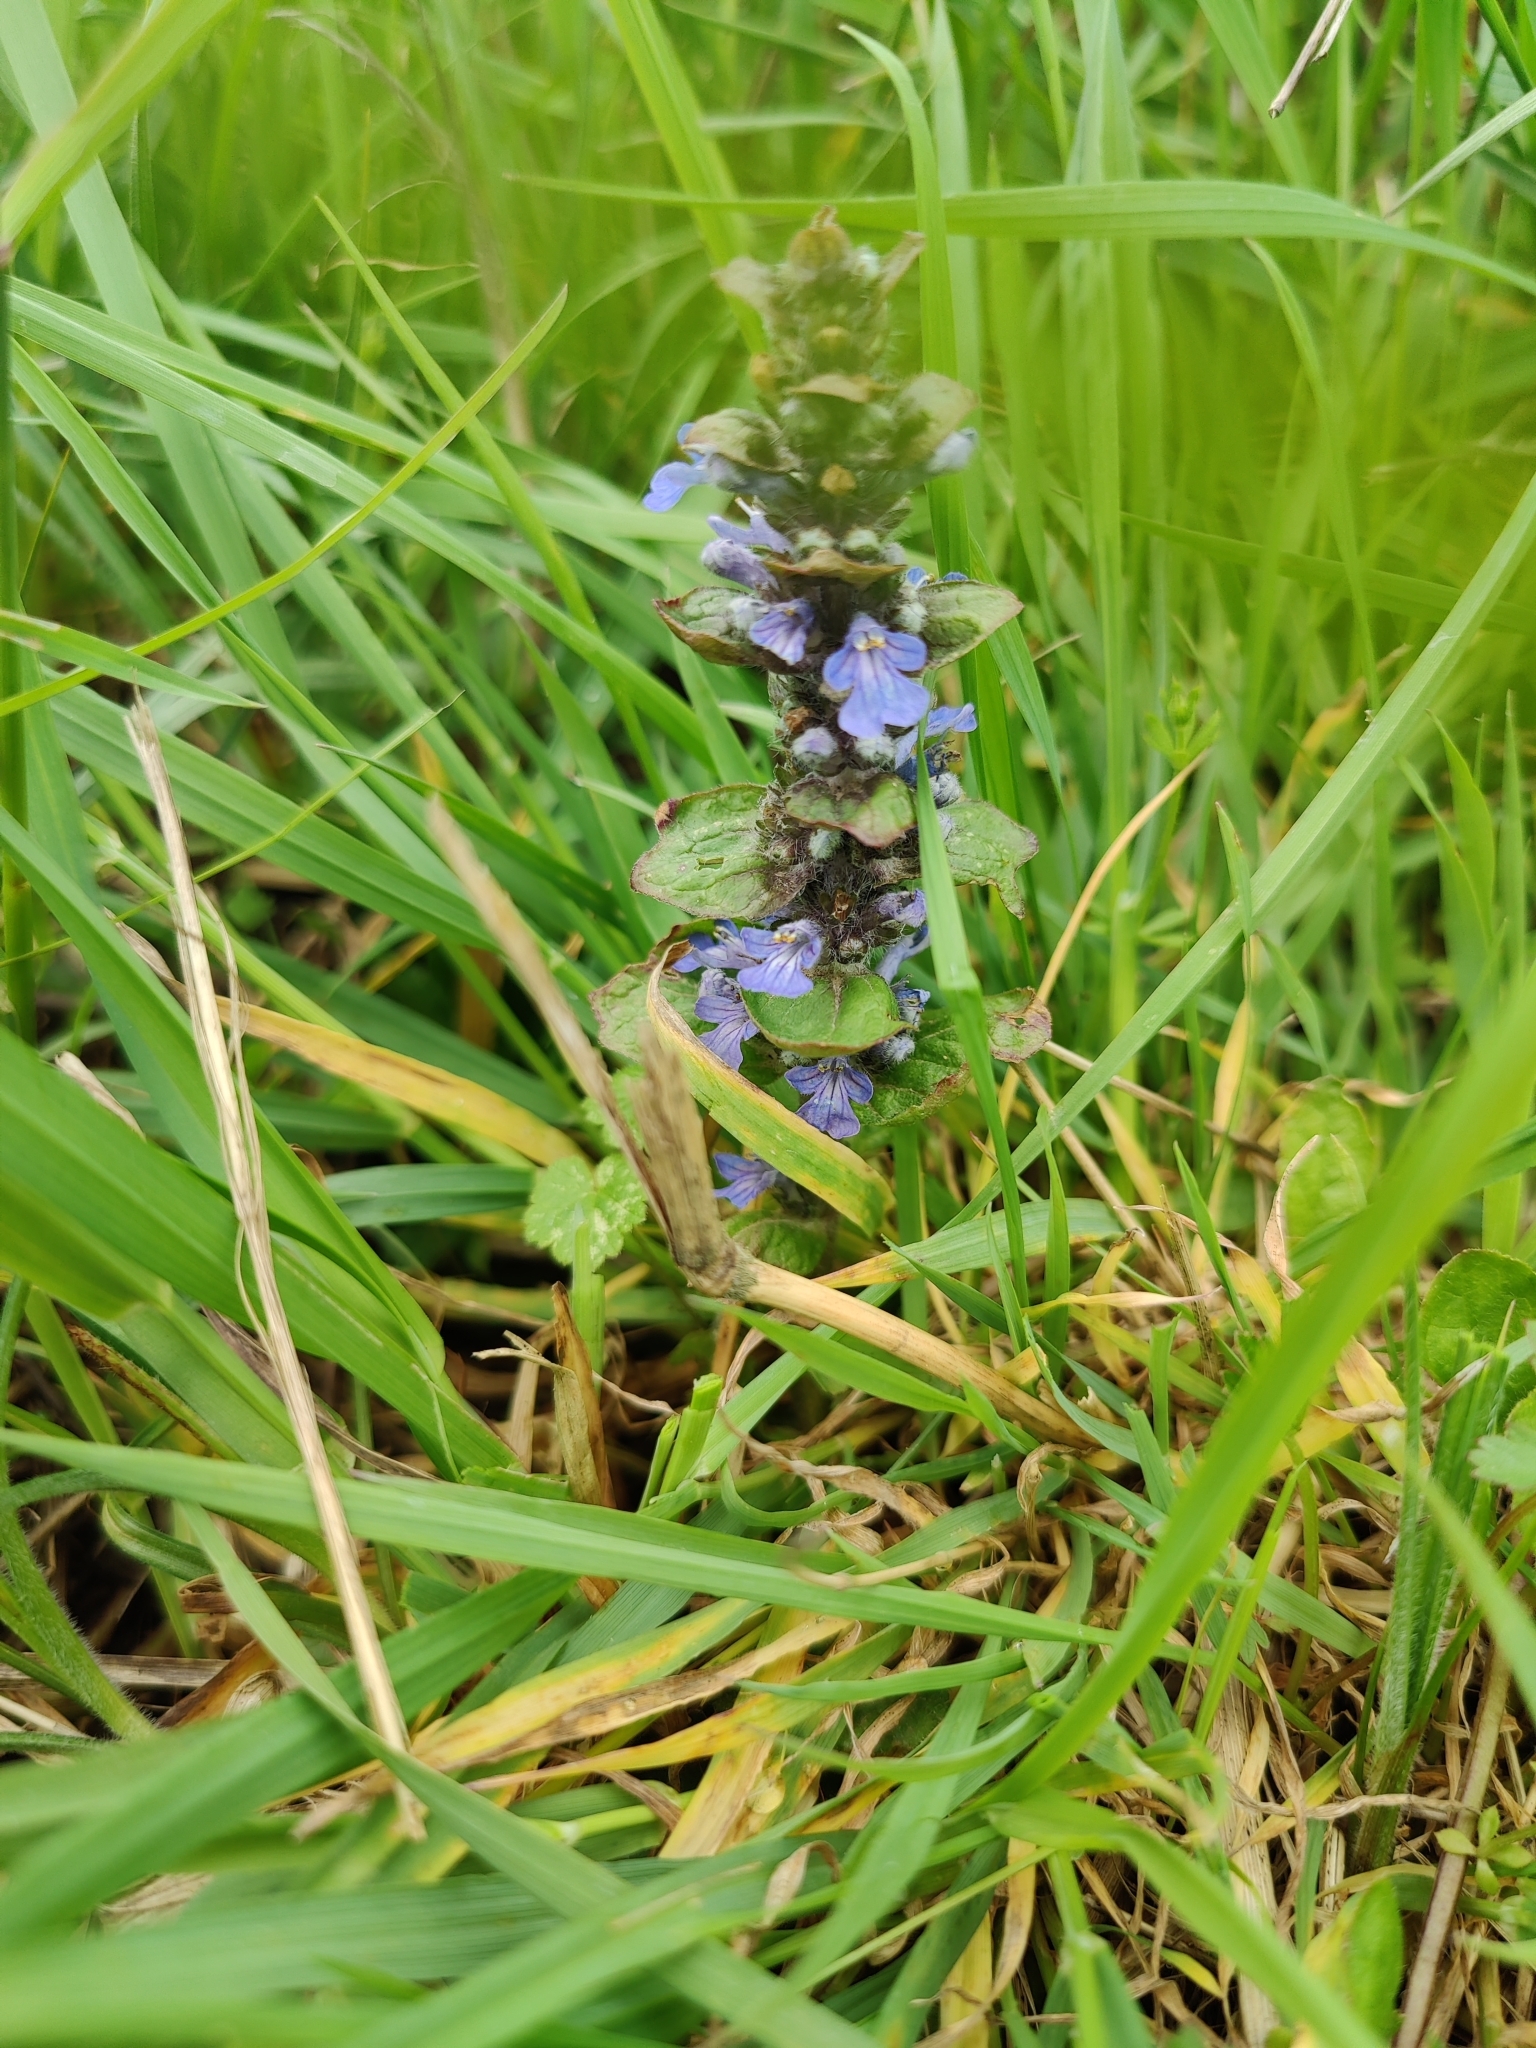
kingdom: Plantae
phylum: Tracheophyta
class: Magnoliopsida
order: Lamiales
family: Lamiaceae
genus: Ajuga
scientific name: Ajuga reptans
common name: Bugle
